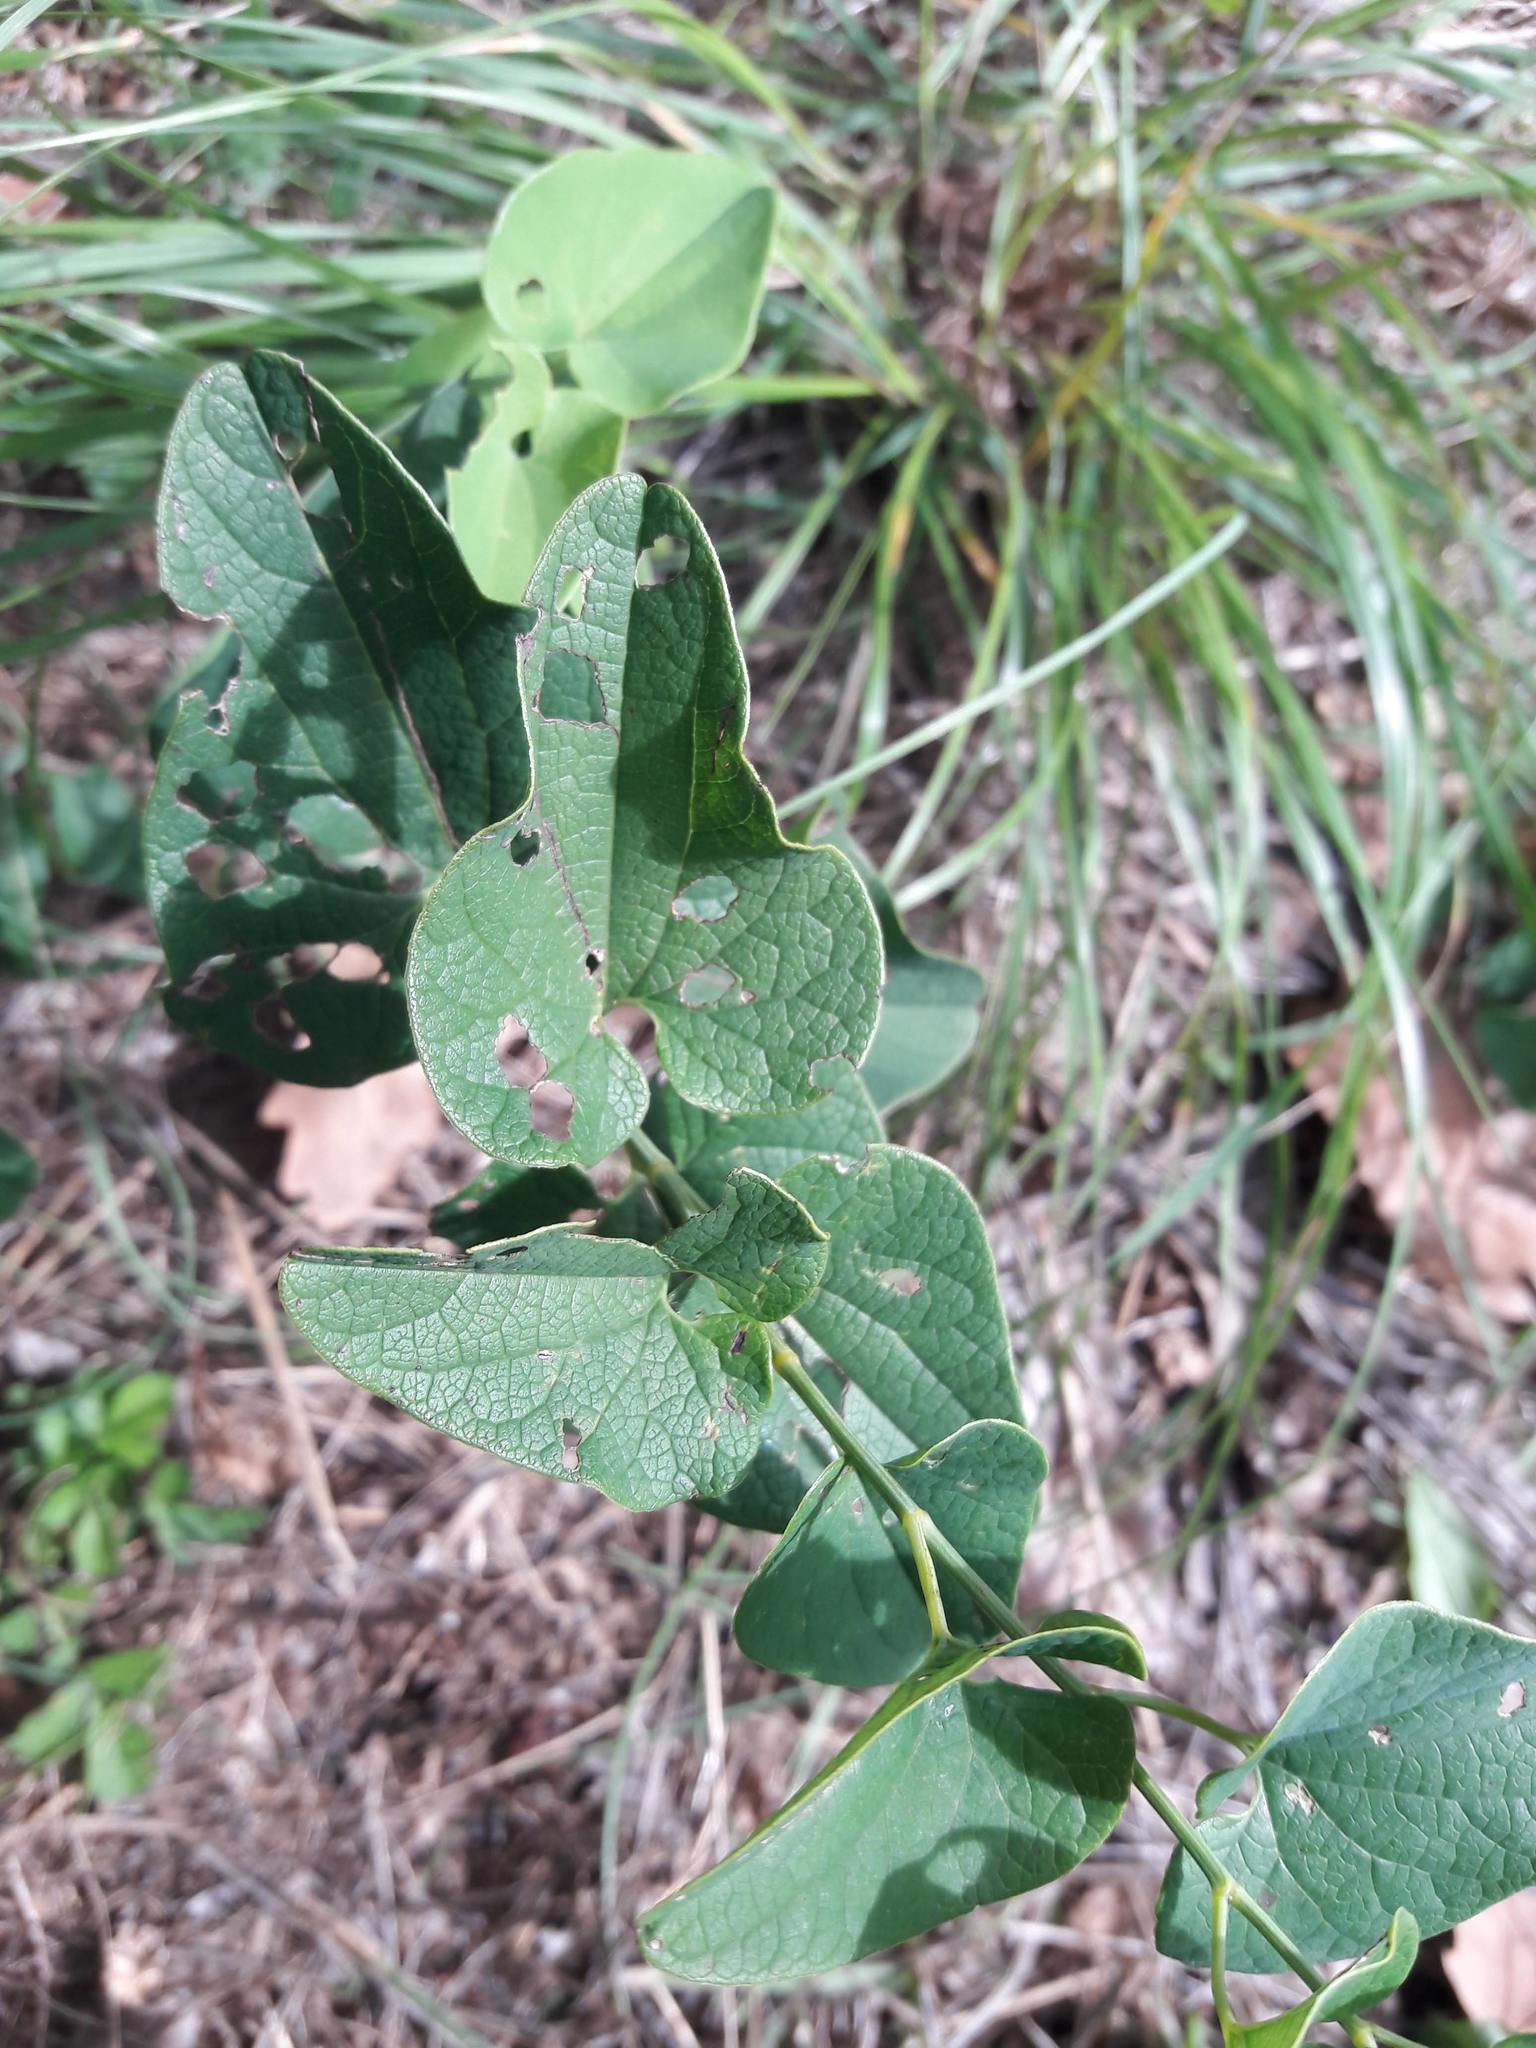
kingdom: Plantae
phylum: Tracheophyta
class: Magnoliopsida
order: Piperales
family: Aristolochiaceae
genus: Aristolochia
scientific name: Aristolochia clematitis
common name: Birthwort
